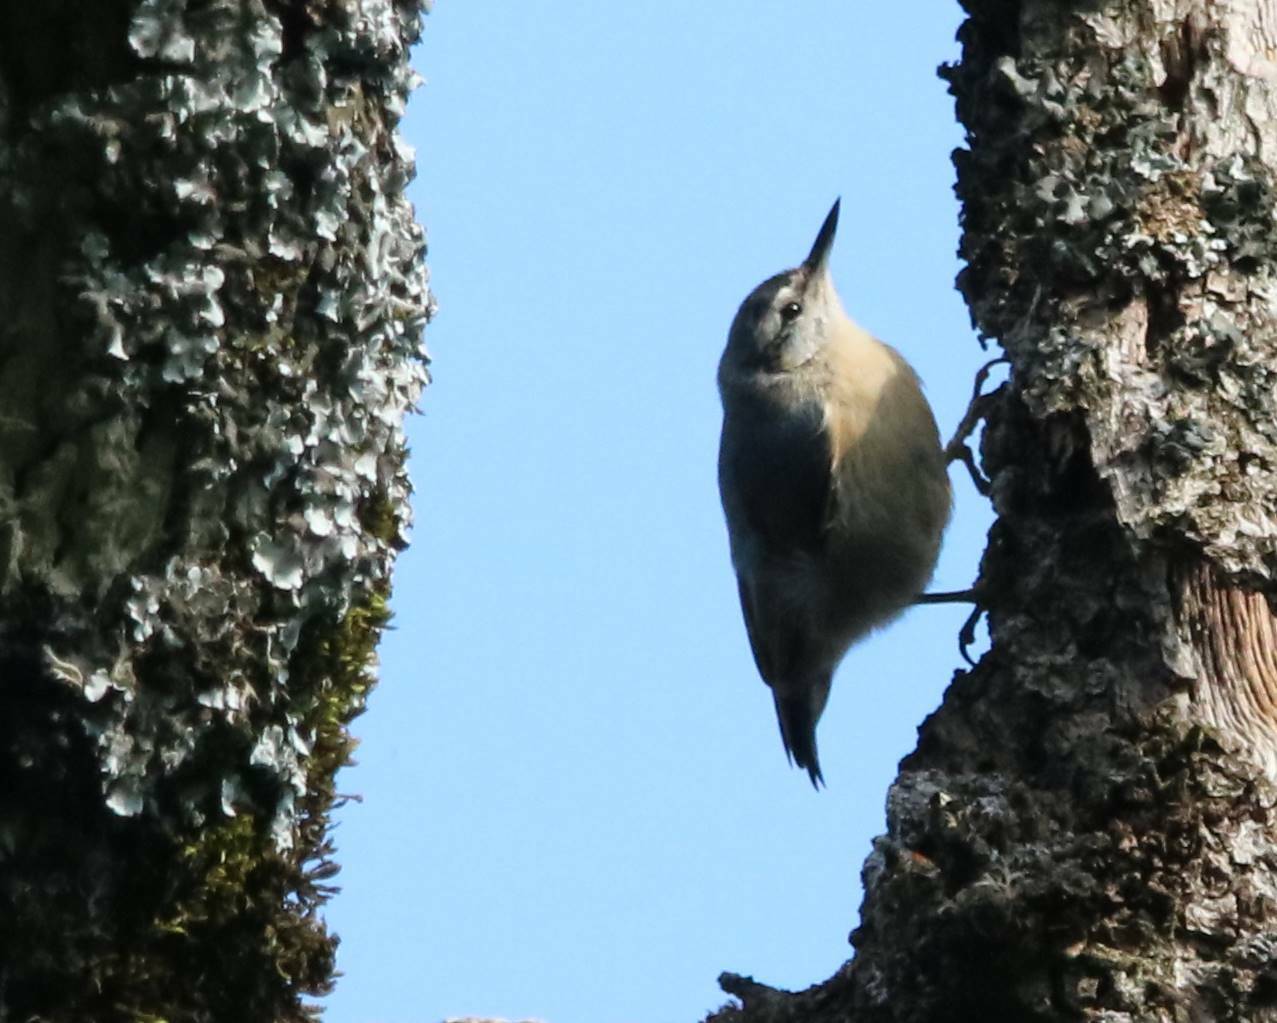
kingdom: Animalia
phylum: Chordata
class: Aves
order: Passeriformes
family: Sittidae
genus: Sitta
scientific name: Sitta ledanti
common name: Algerian nuthatch
